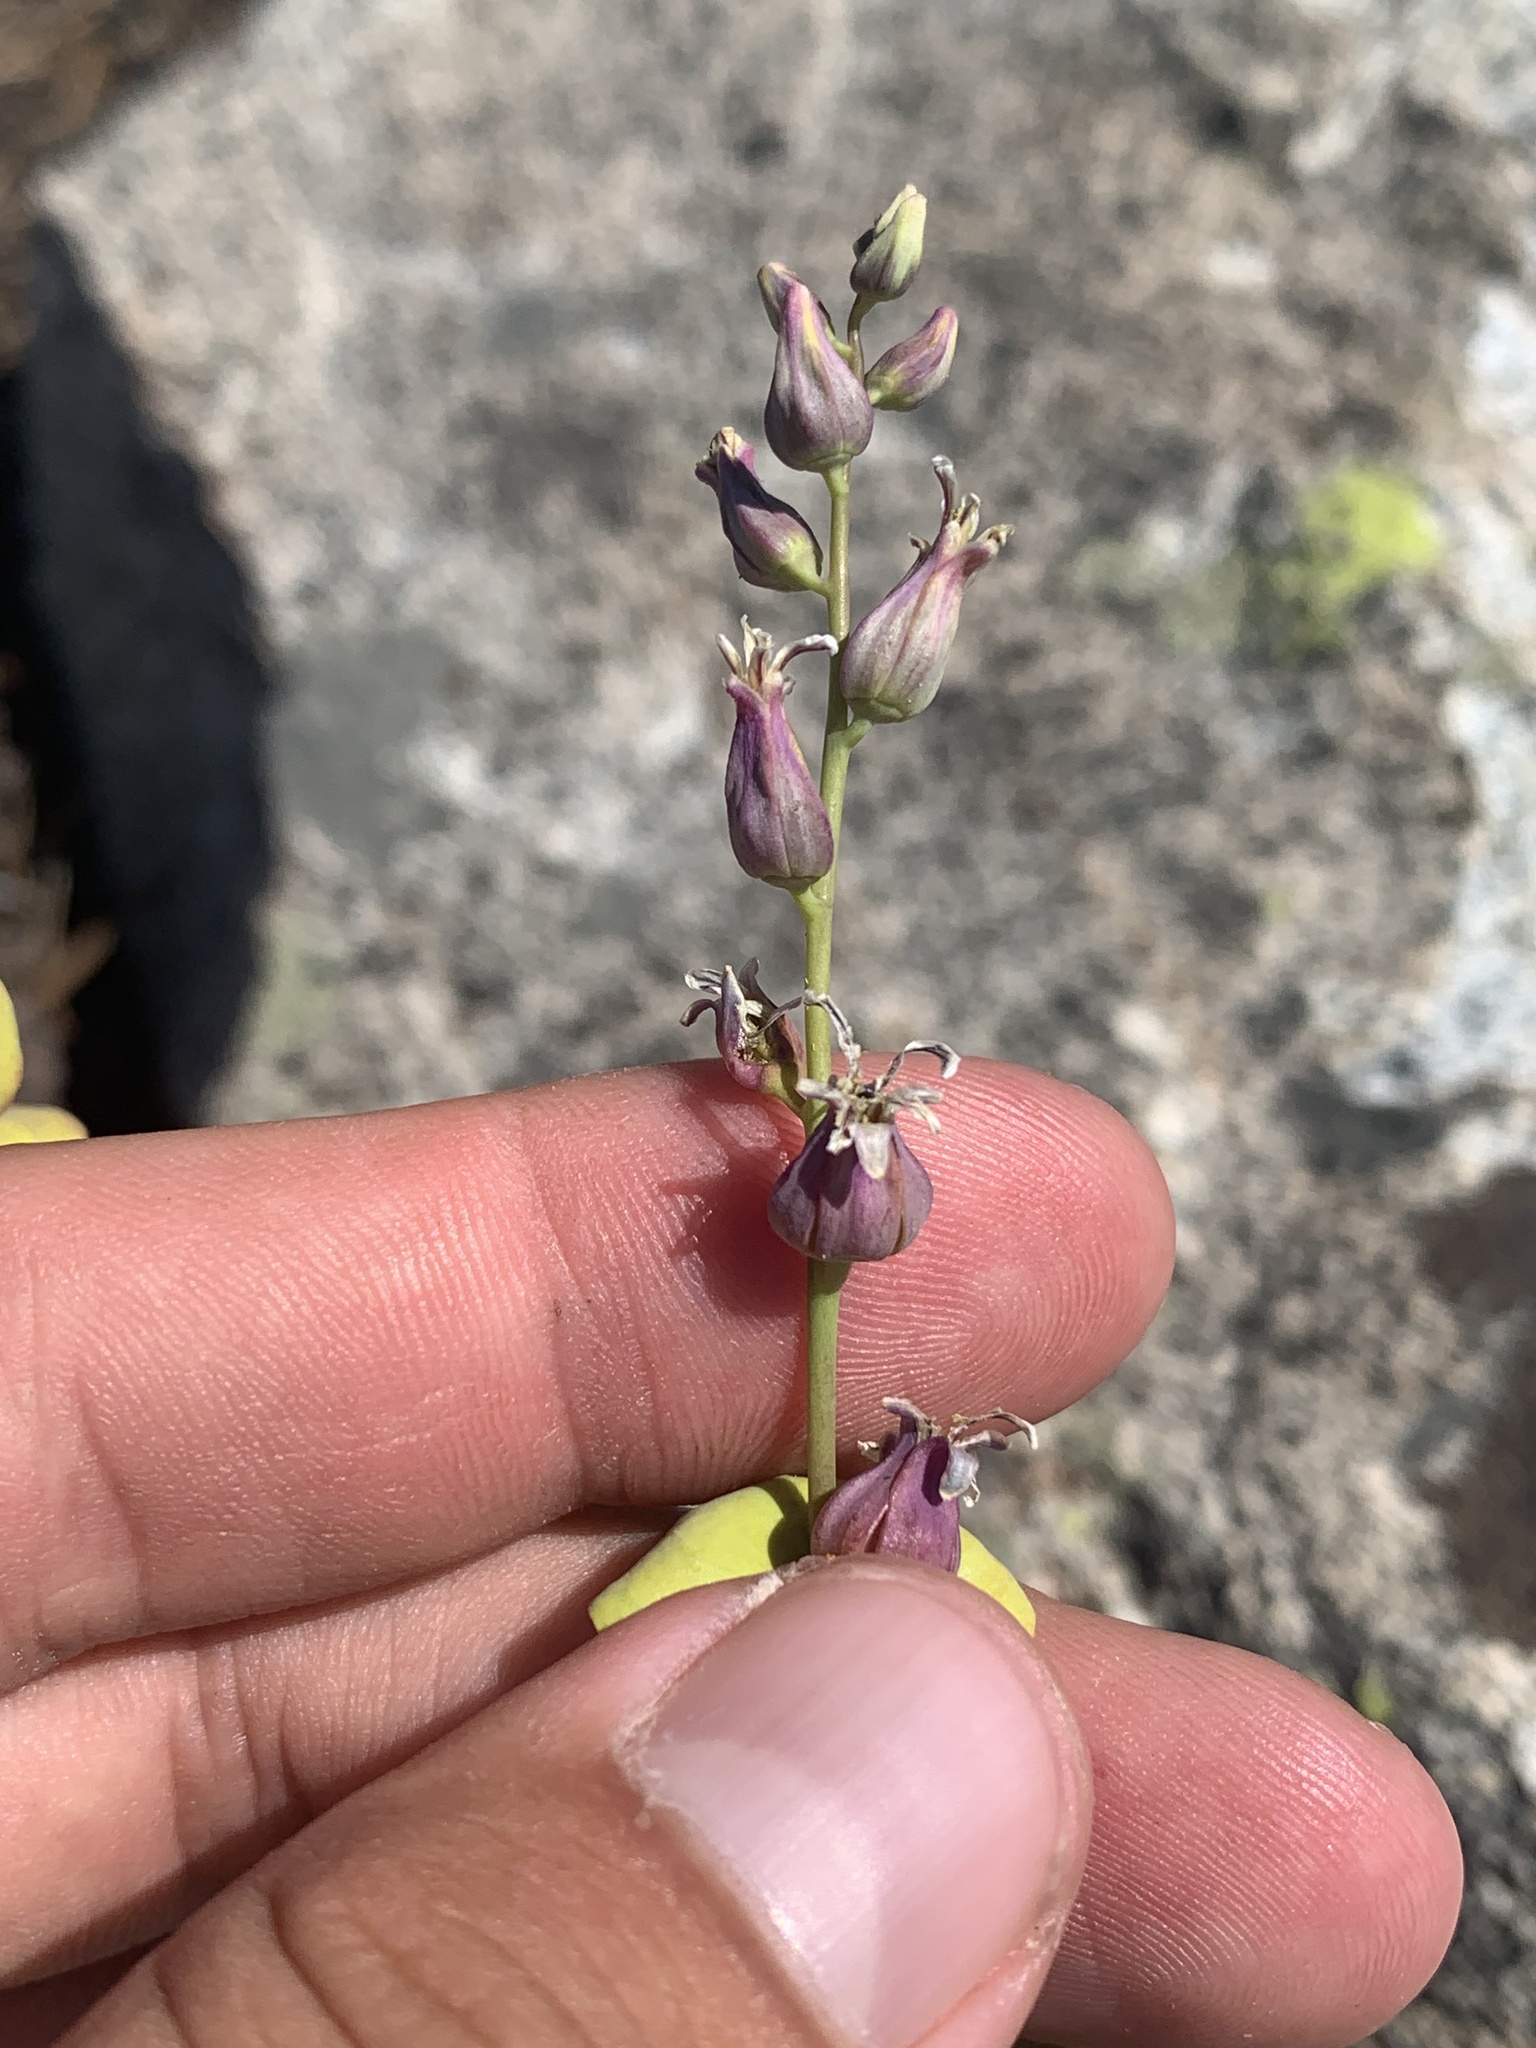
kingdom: Plantae
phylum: Tracheophyta
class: Magnoliopsida
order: Brassicales
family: Brassicaceae
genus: Streptanthus
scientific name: Streptanthus tortuosus
